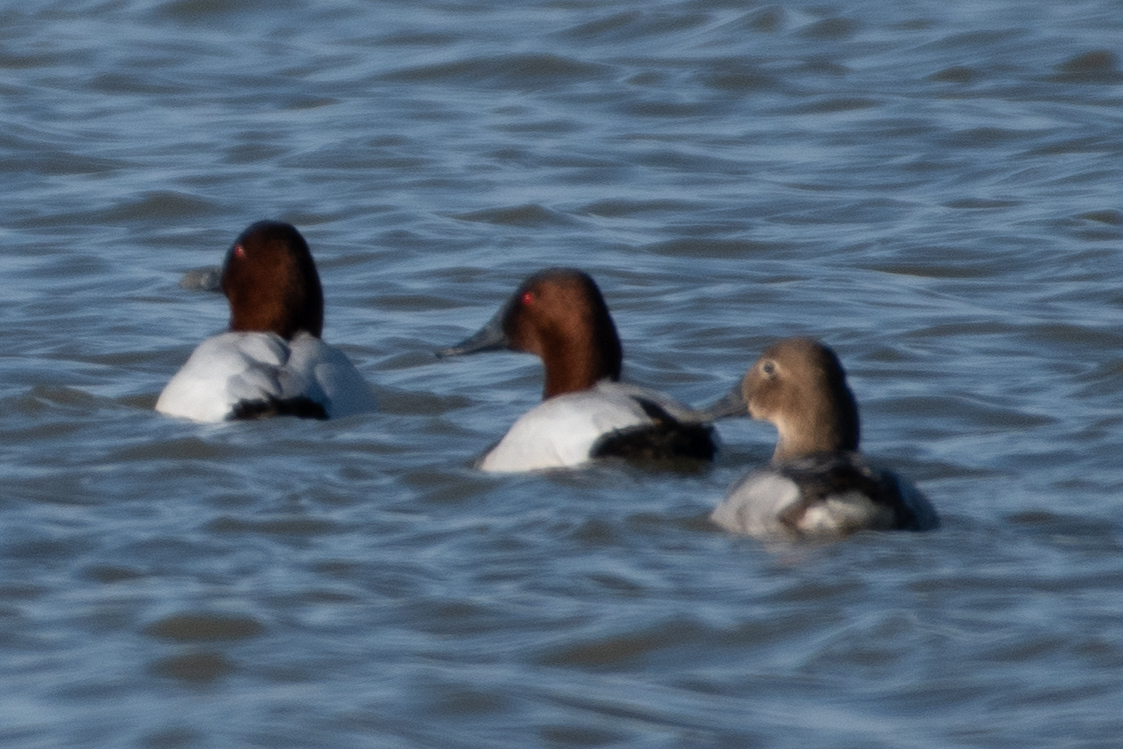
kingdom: Animalia
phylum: Chordata
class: Aves
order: Anseriformes
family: Anatidae
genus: Aythya
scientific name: Aythya valisineria
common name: Canvasback
